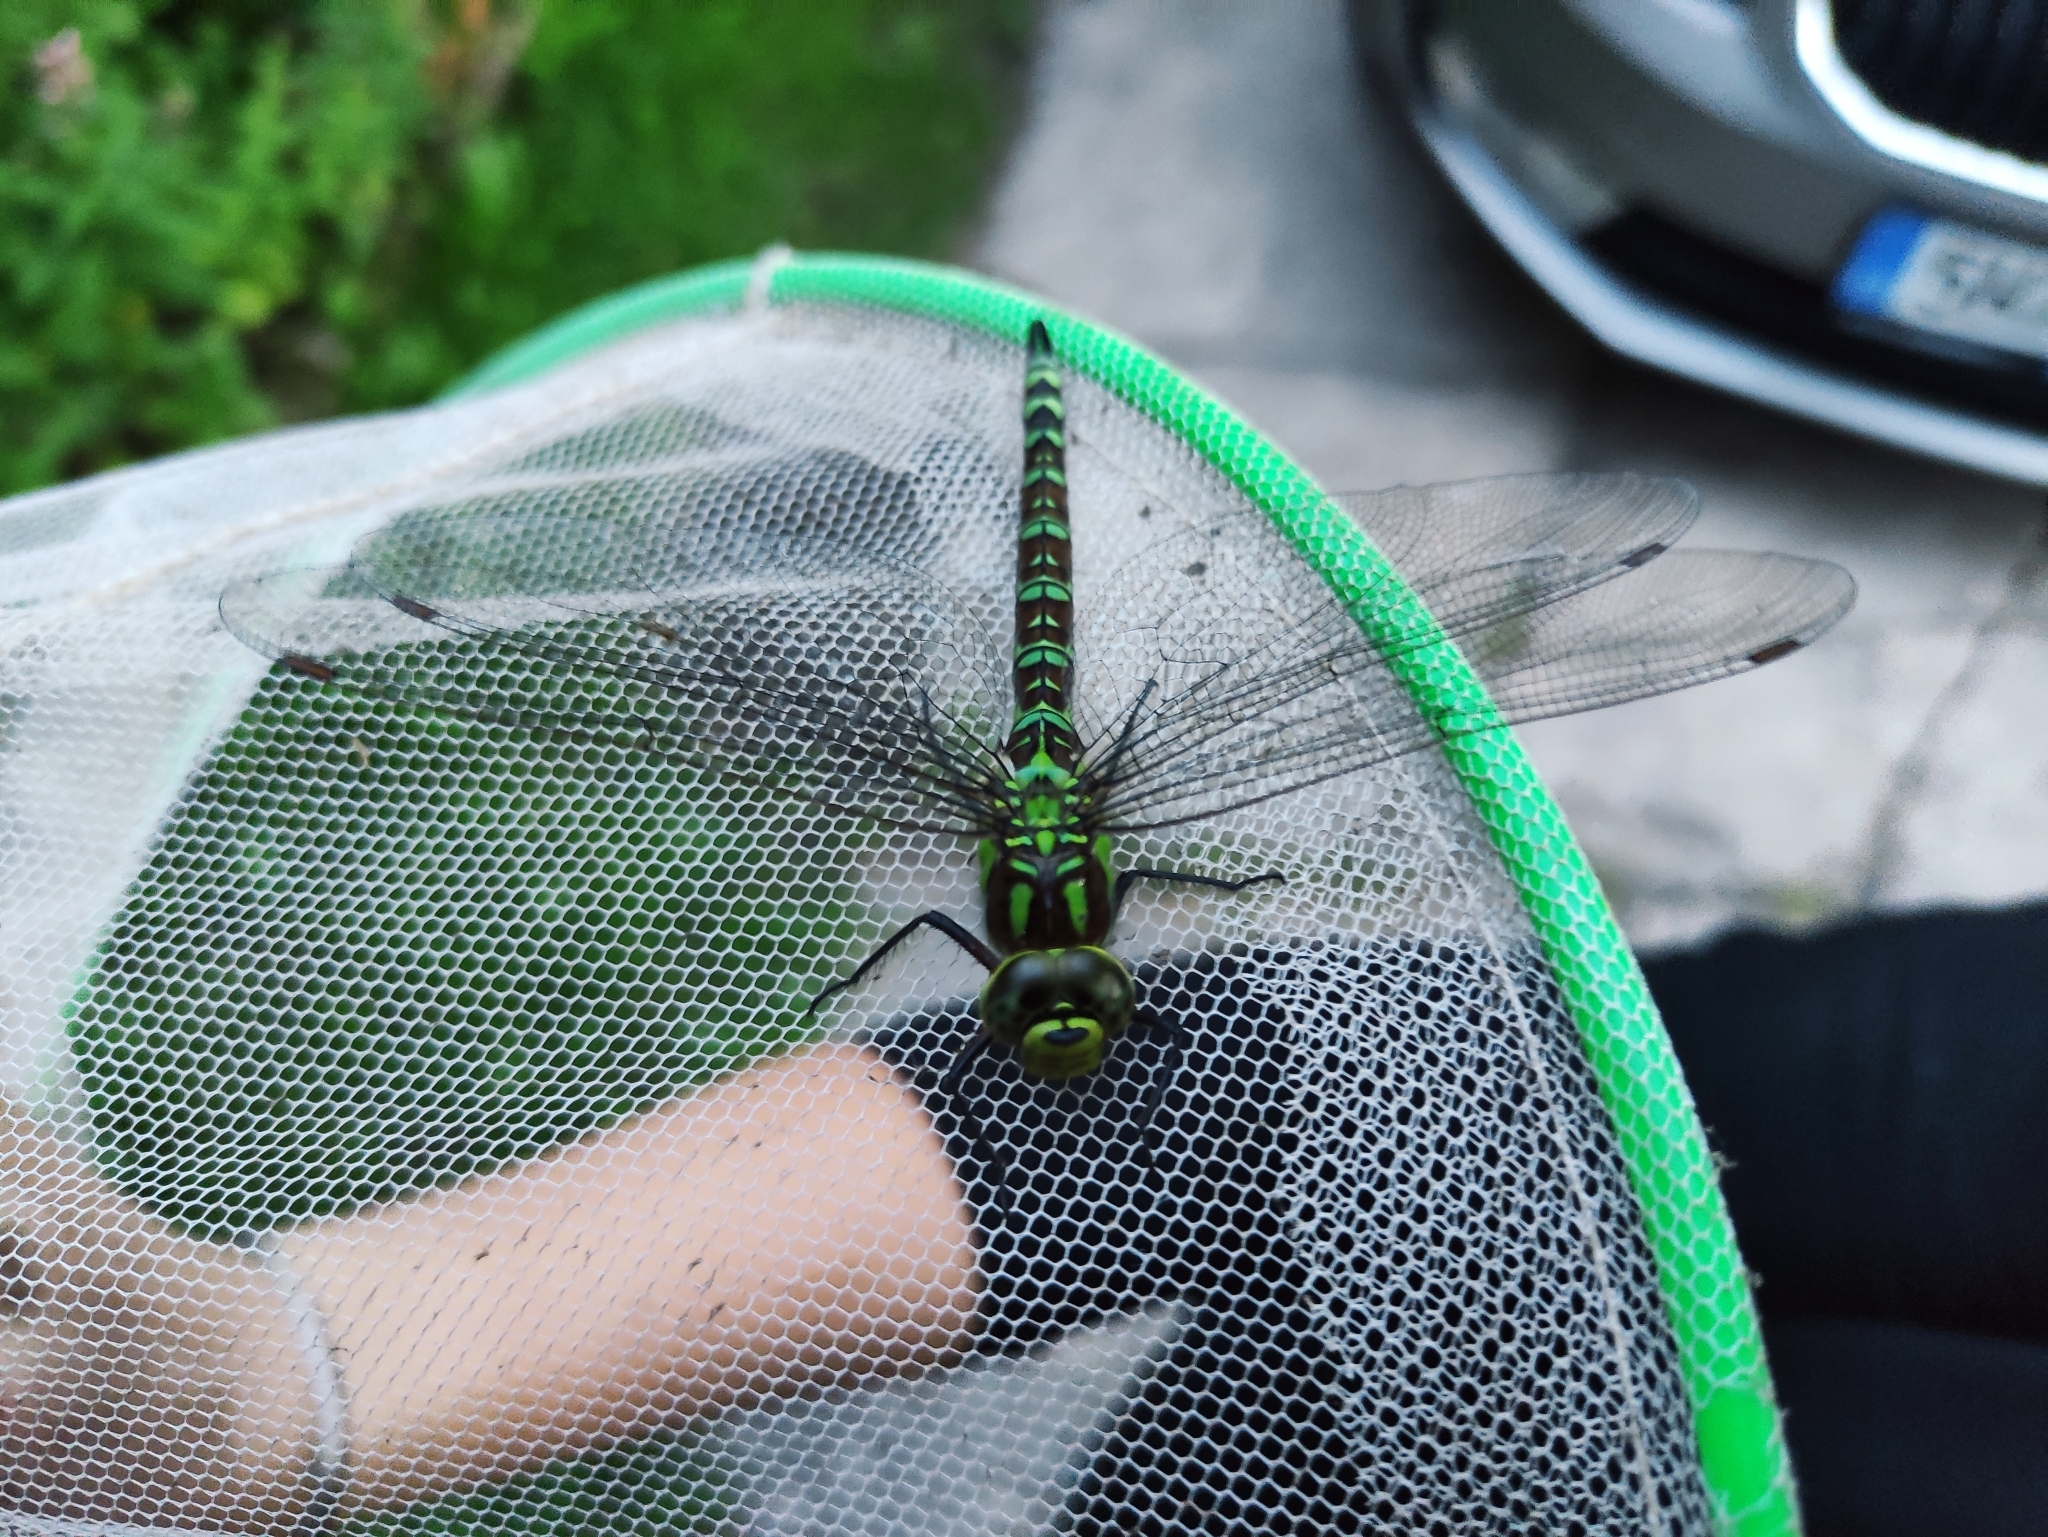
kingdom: Animalia
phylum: Arthropoda
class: Insecta
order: Odonata
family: Aeshnidae
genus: Aeshna
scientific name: Aeshna cyanea
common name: Southern hawker
